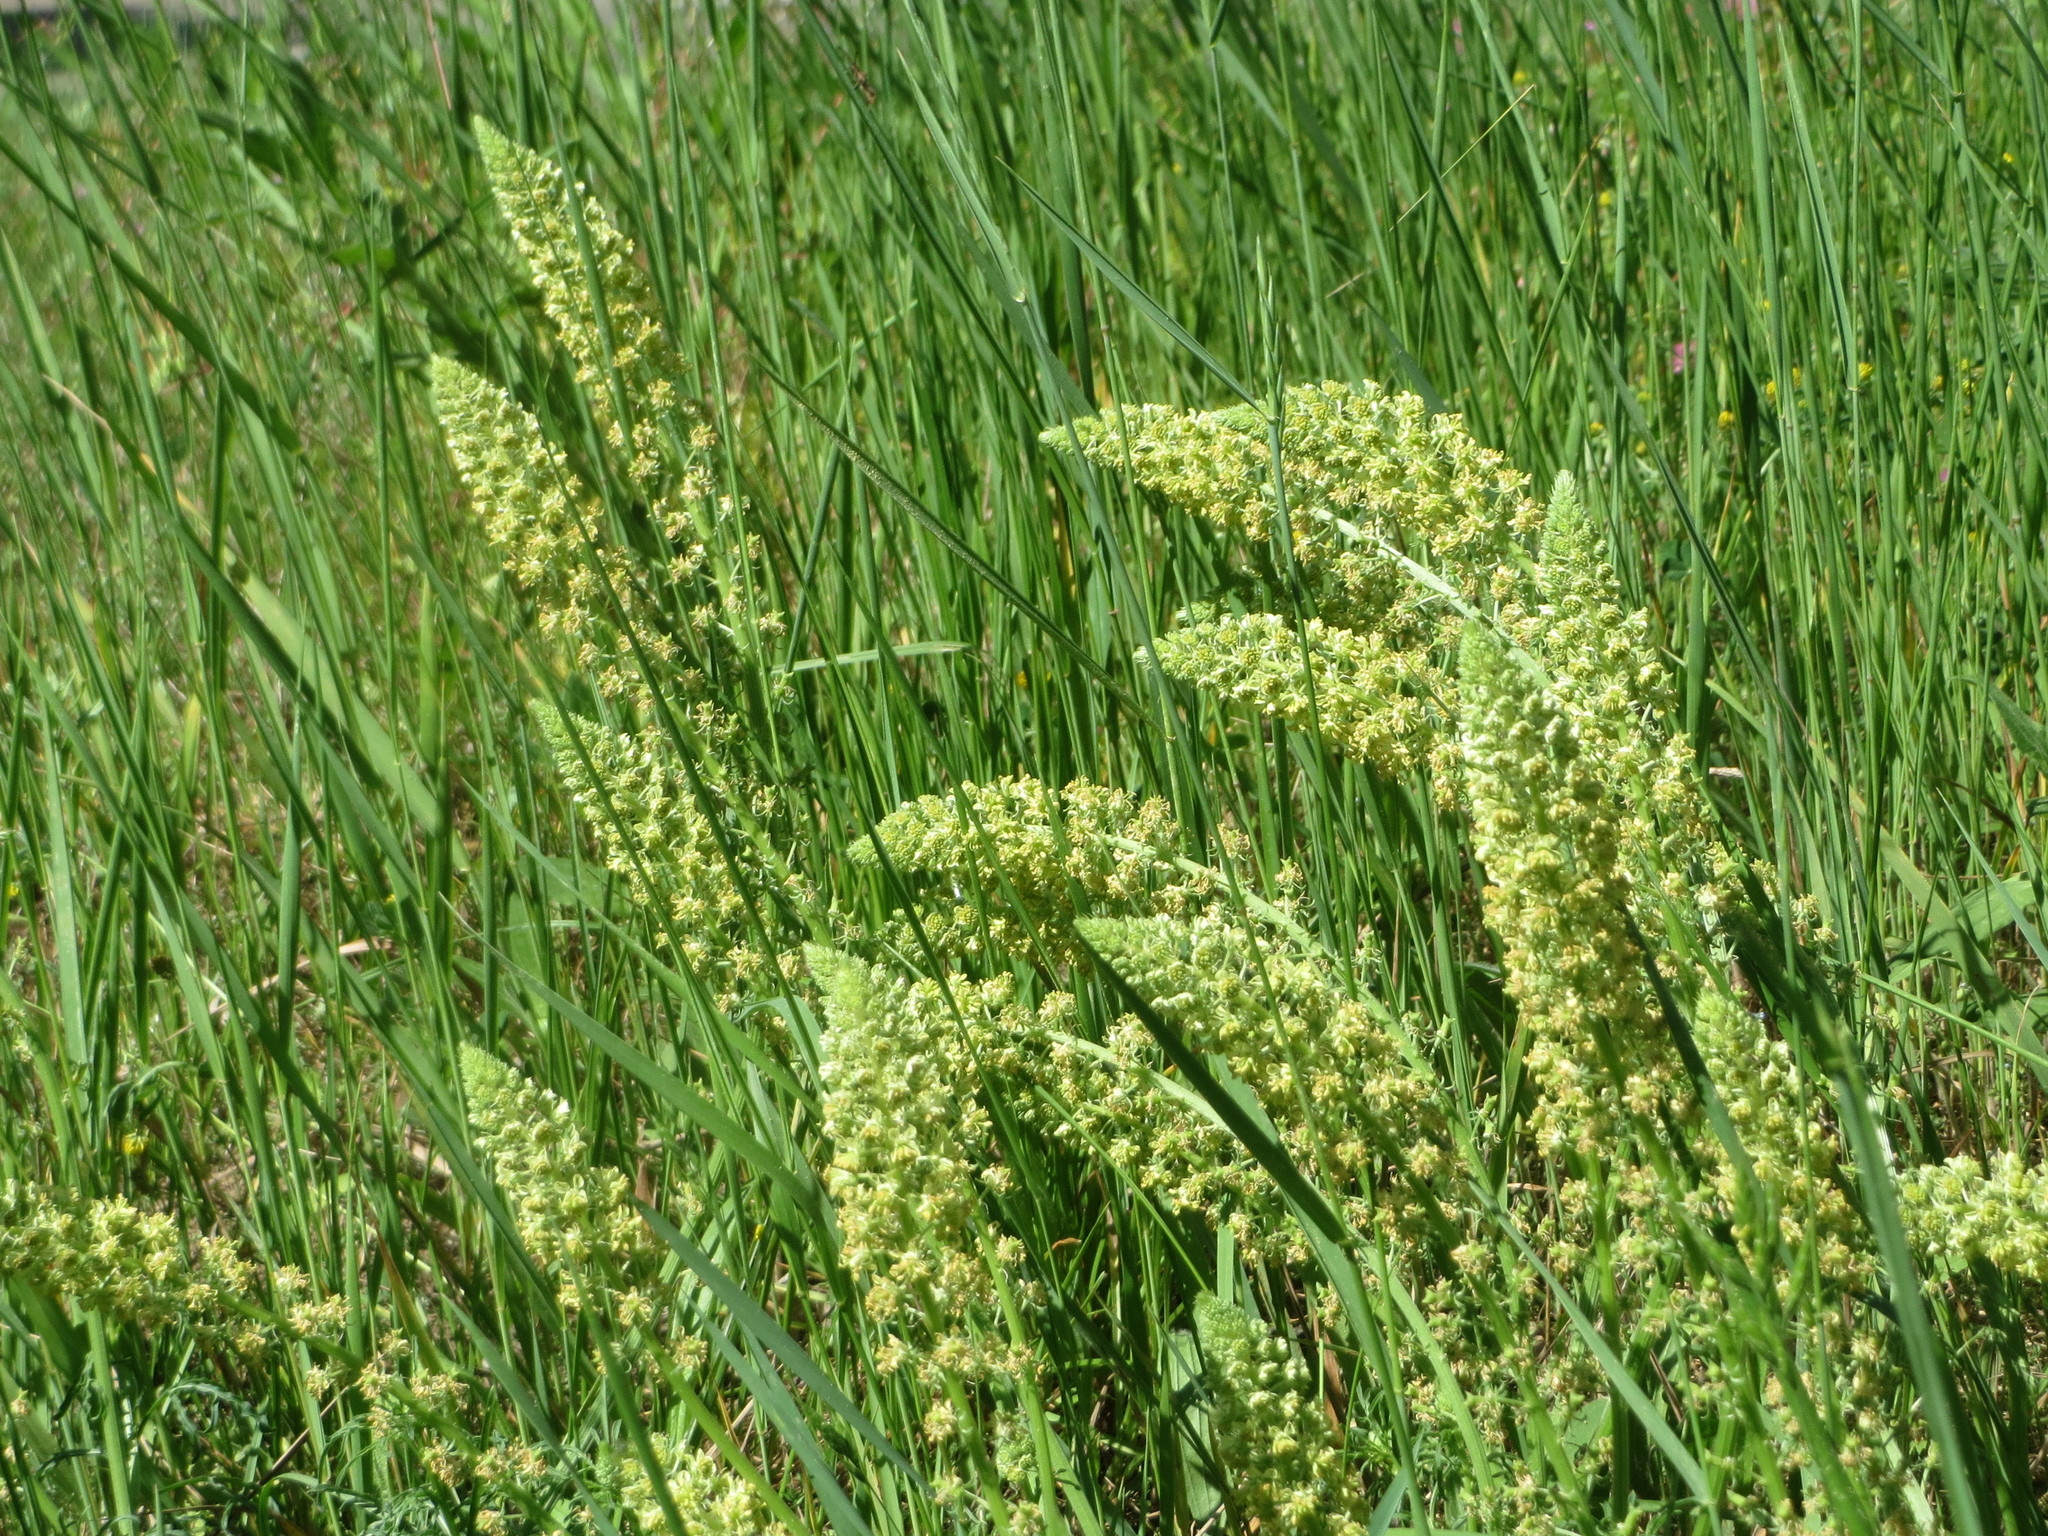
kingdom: Plantae
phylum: Tracheophyta
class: Magnoliopsida
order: Brassicales
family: Resedaceae
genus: Reseda
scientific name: Reseda lutea
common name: Wild mignonette
